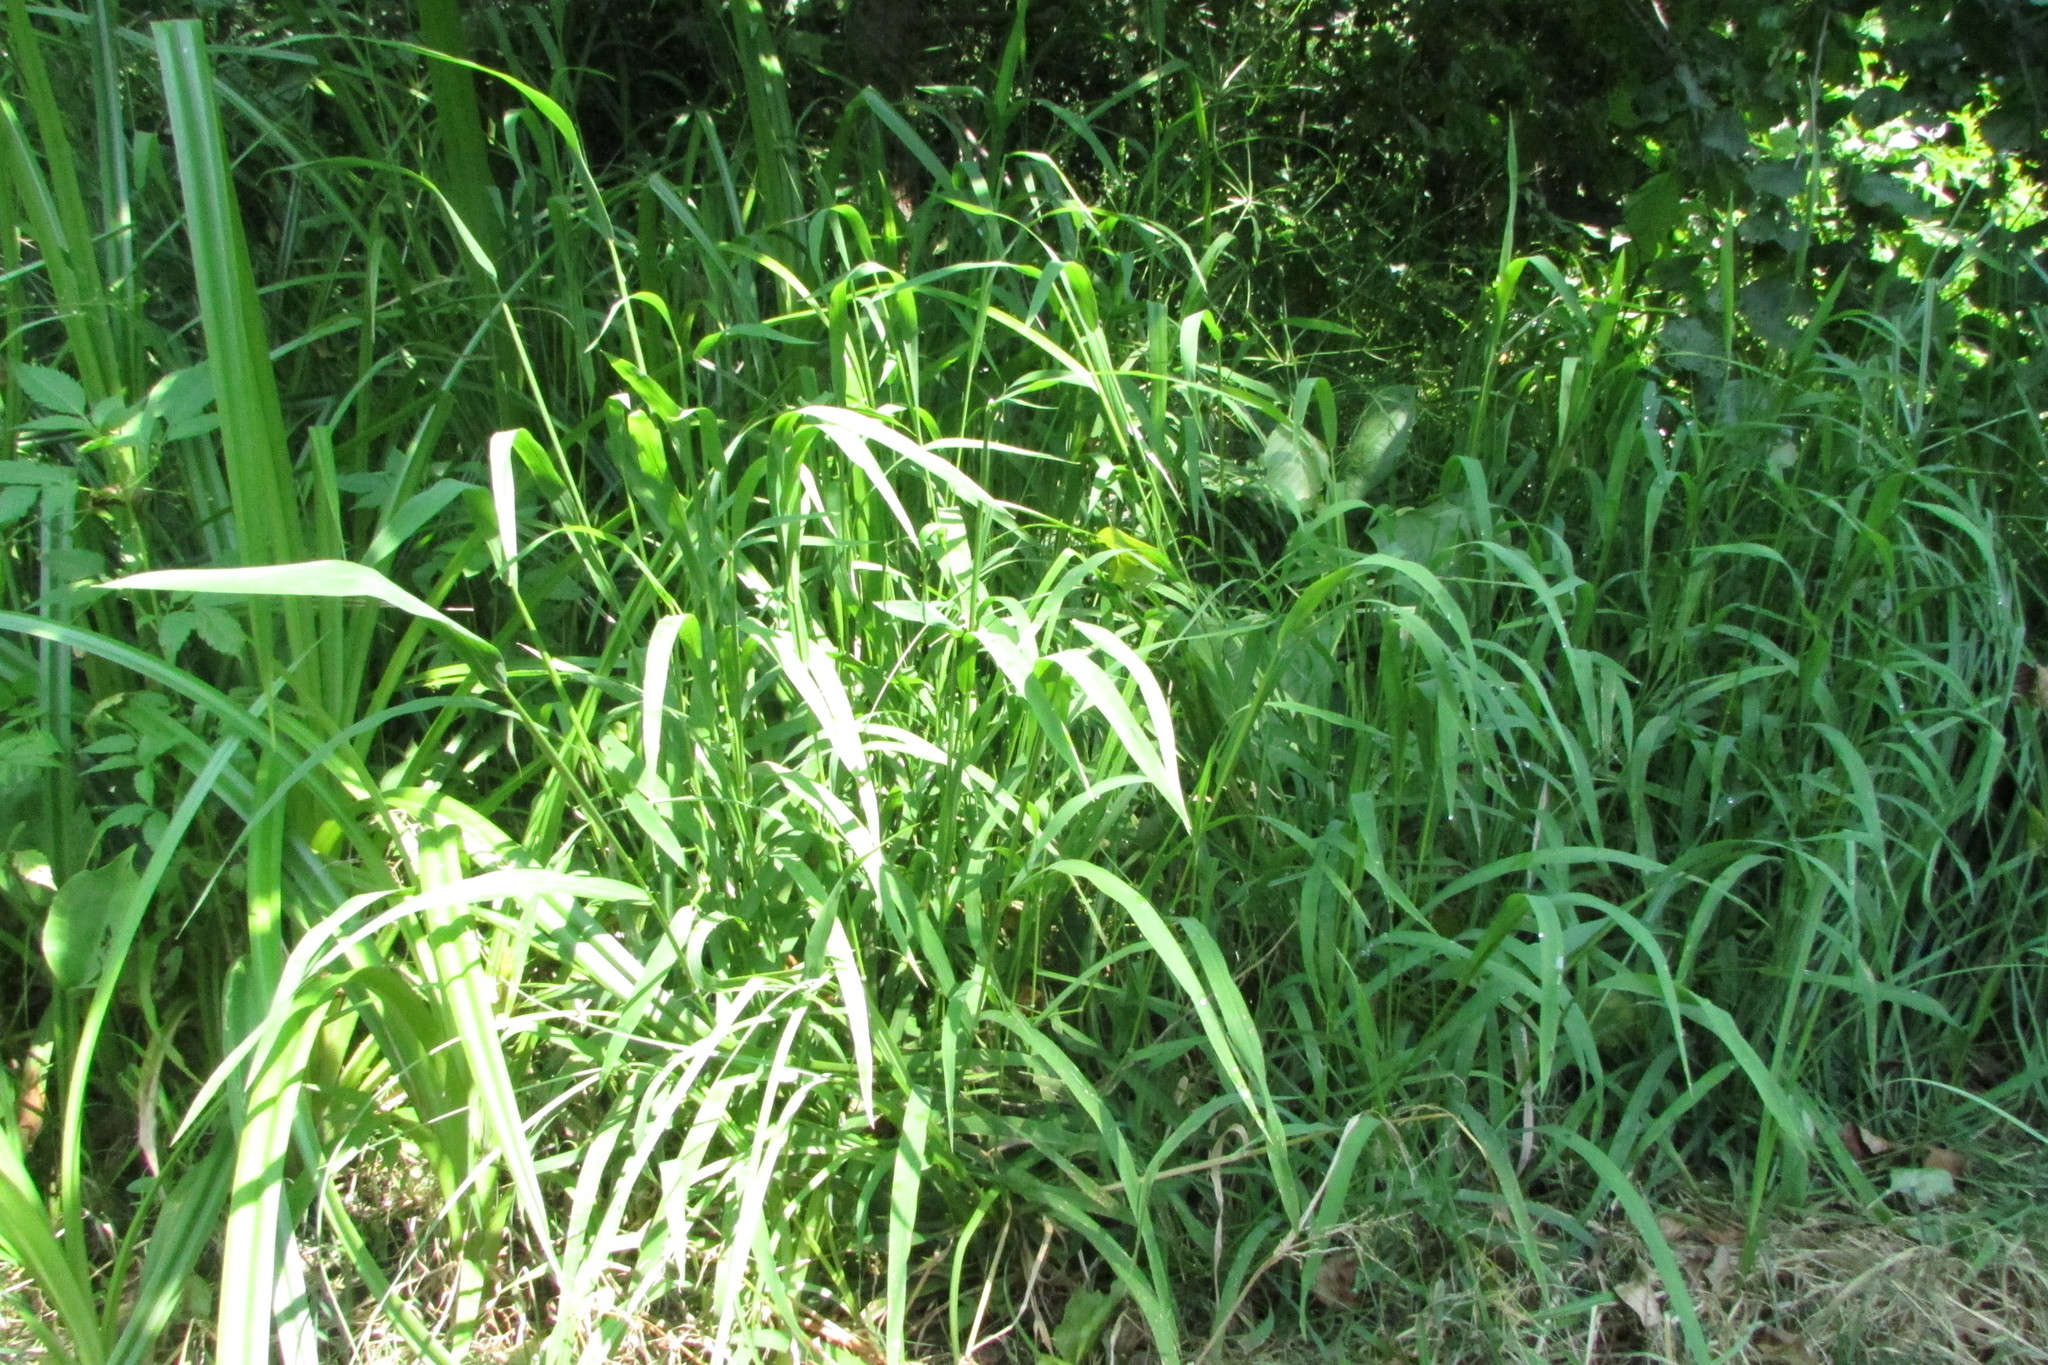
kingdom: Plantae
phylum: Tracheophyta
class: Liliopsida
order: Poales
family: Poaceae
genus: Leersia
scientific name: Leersia oryzoides
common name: Cut-grass
